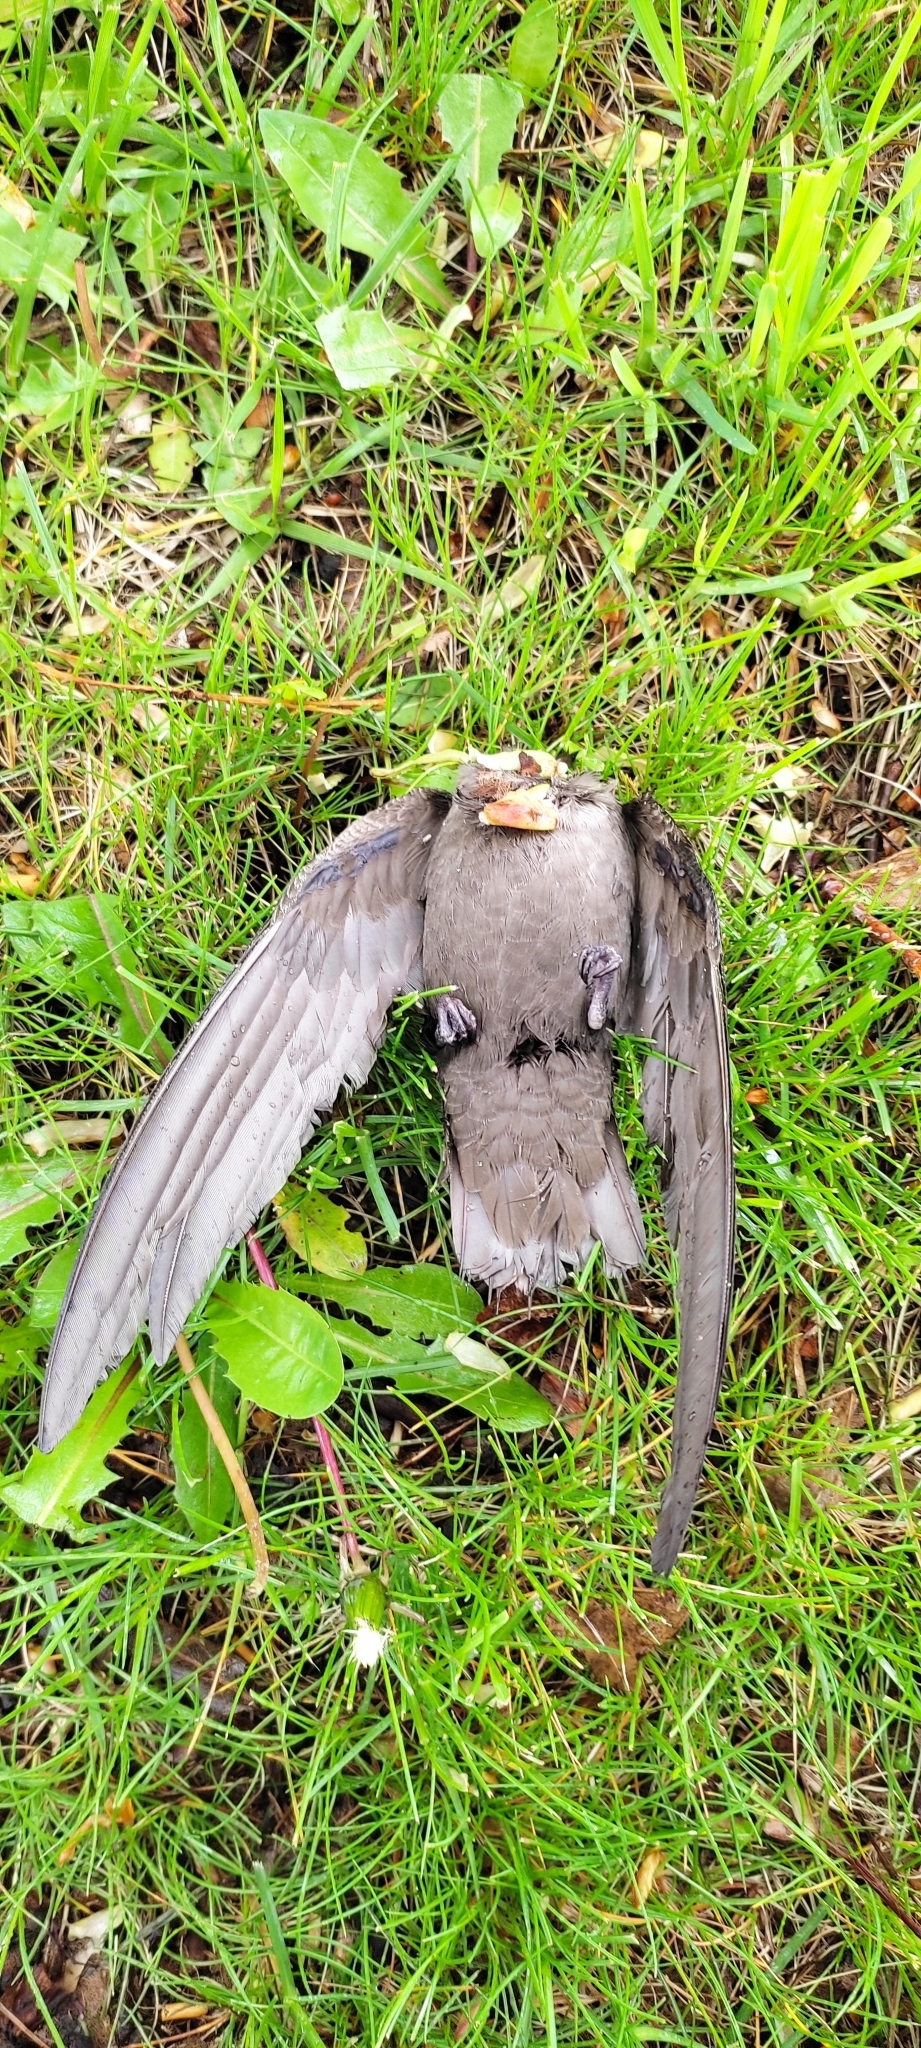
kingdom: Animalia
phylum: Chordata
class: Aves
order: Apodiformes
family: Apodidae
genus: Chaetura
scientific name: Chaetura pelagica
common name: Chimney swift
